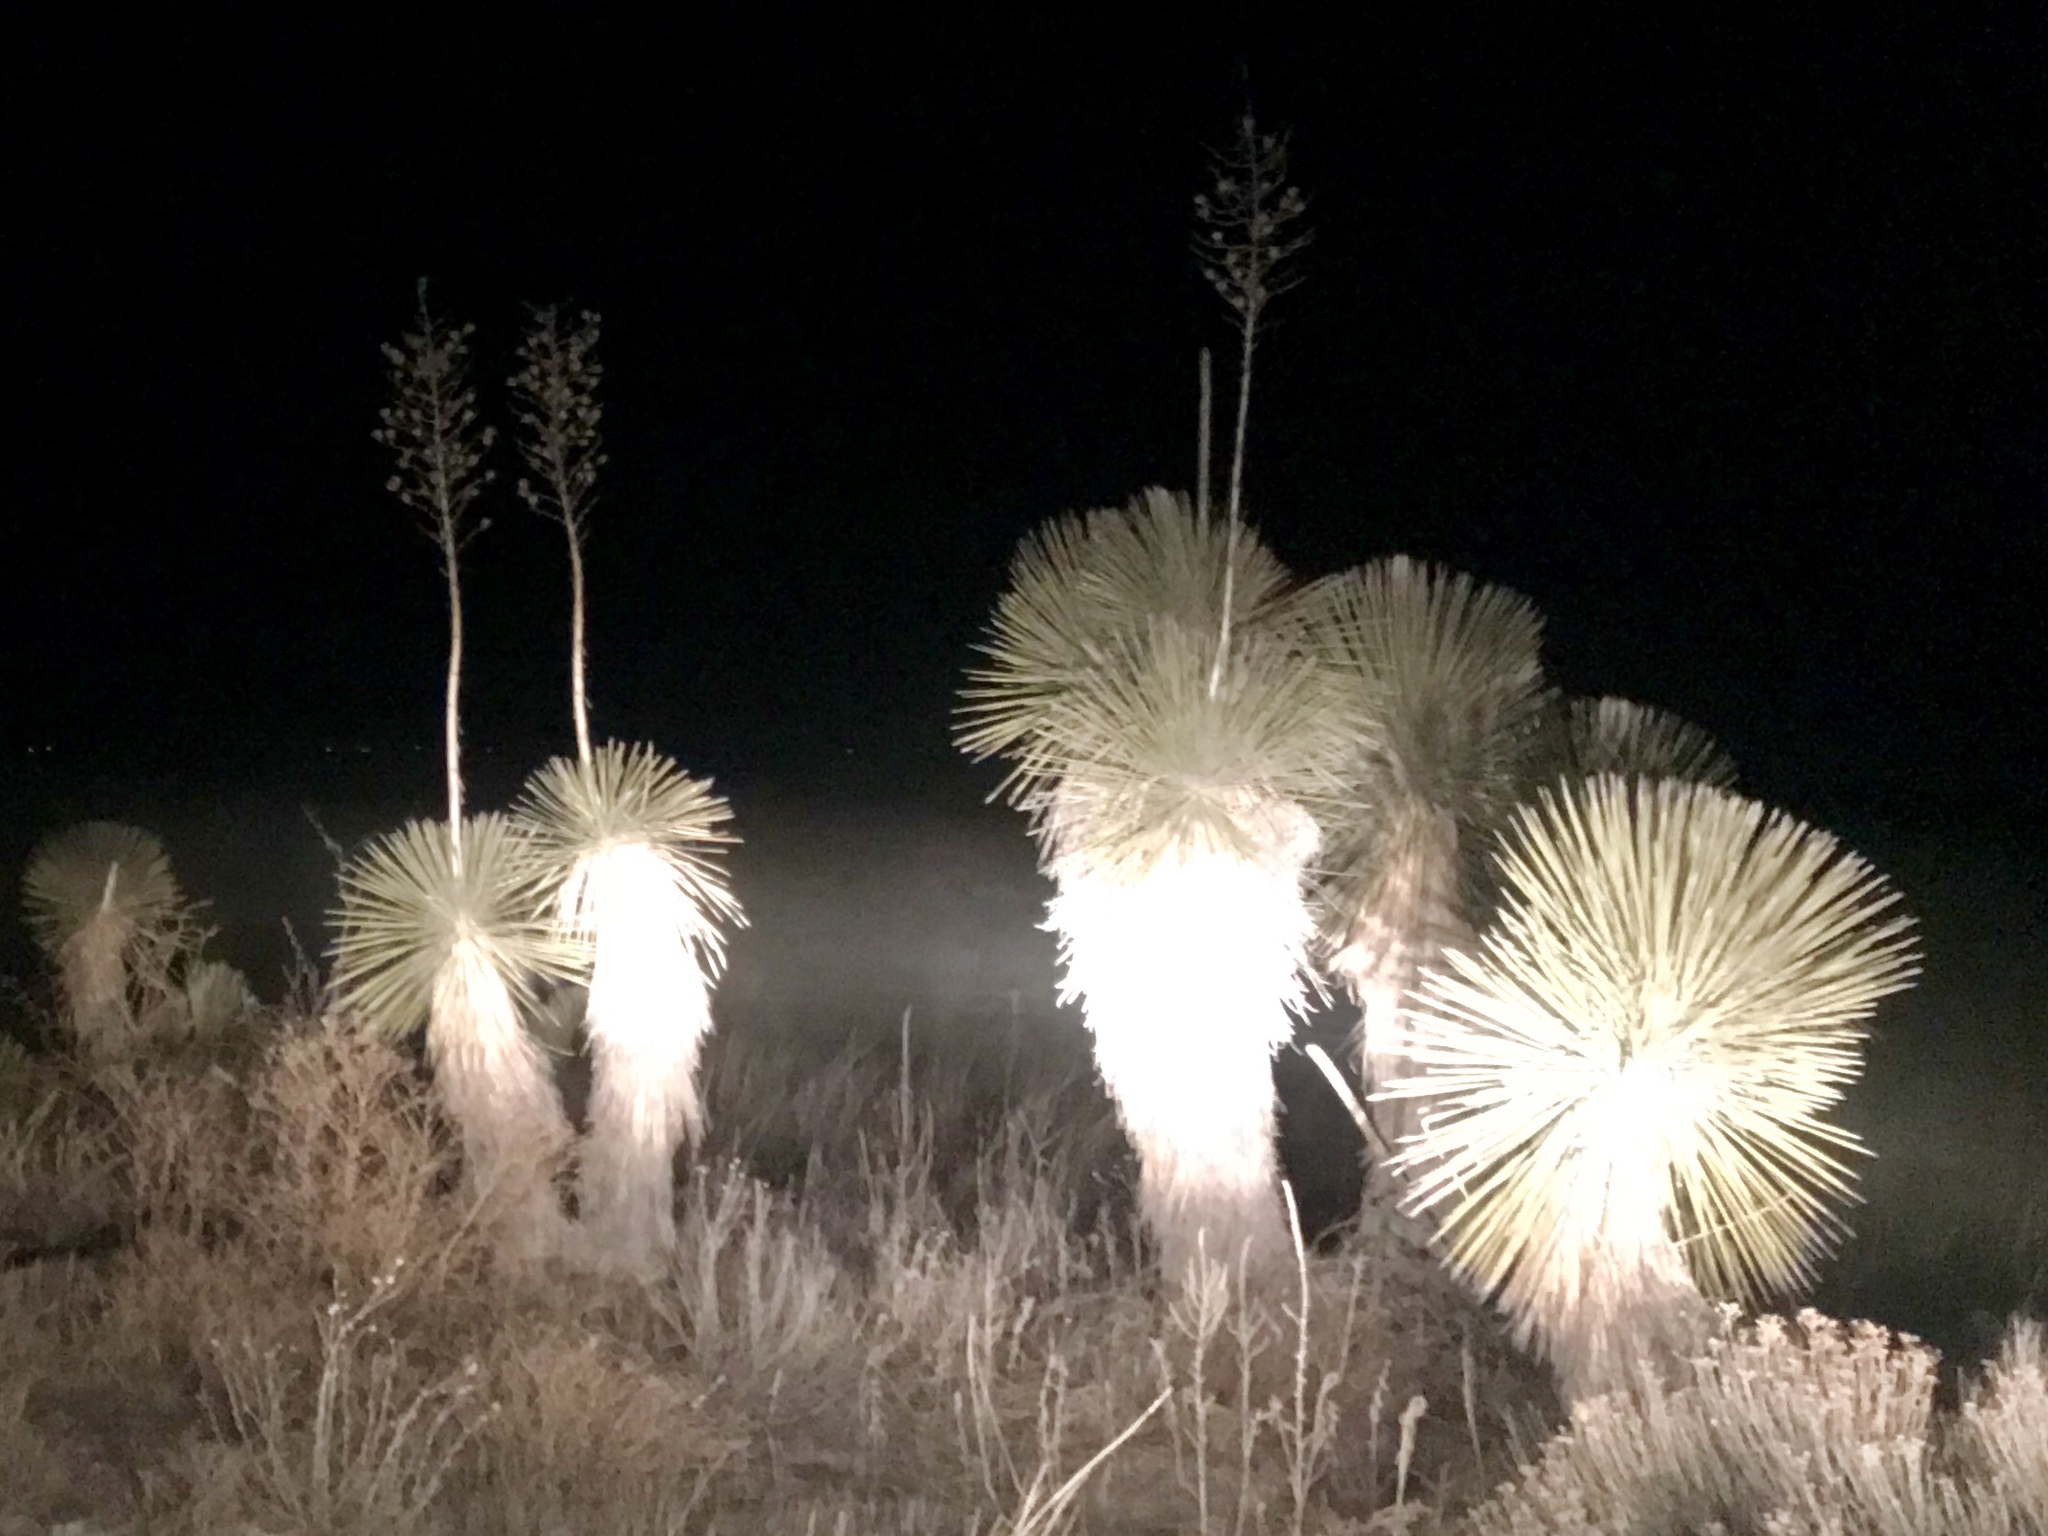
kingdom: Plantae
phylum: Tracheophyta
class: Liliopsida
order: Asparagales
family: Asparagaceae
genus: Yucca
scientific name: Yucca elata
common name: Palmella
